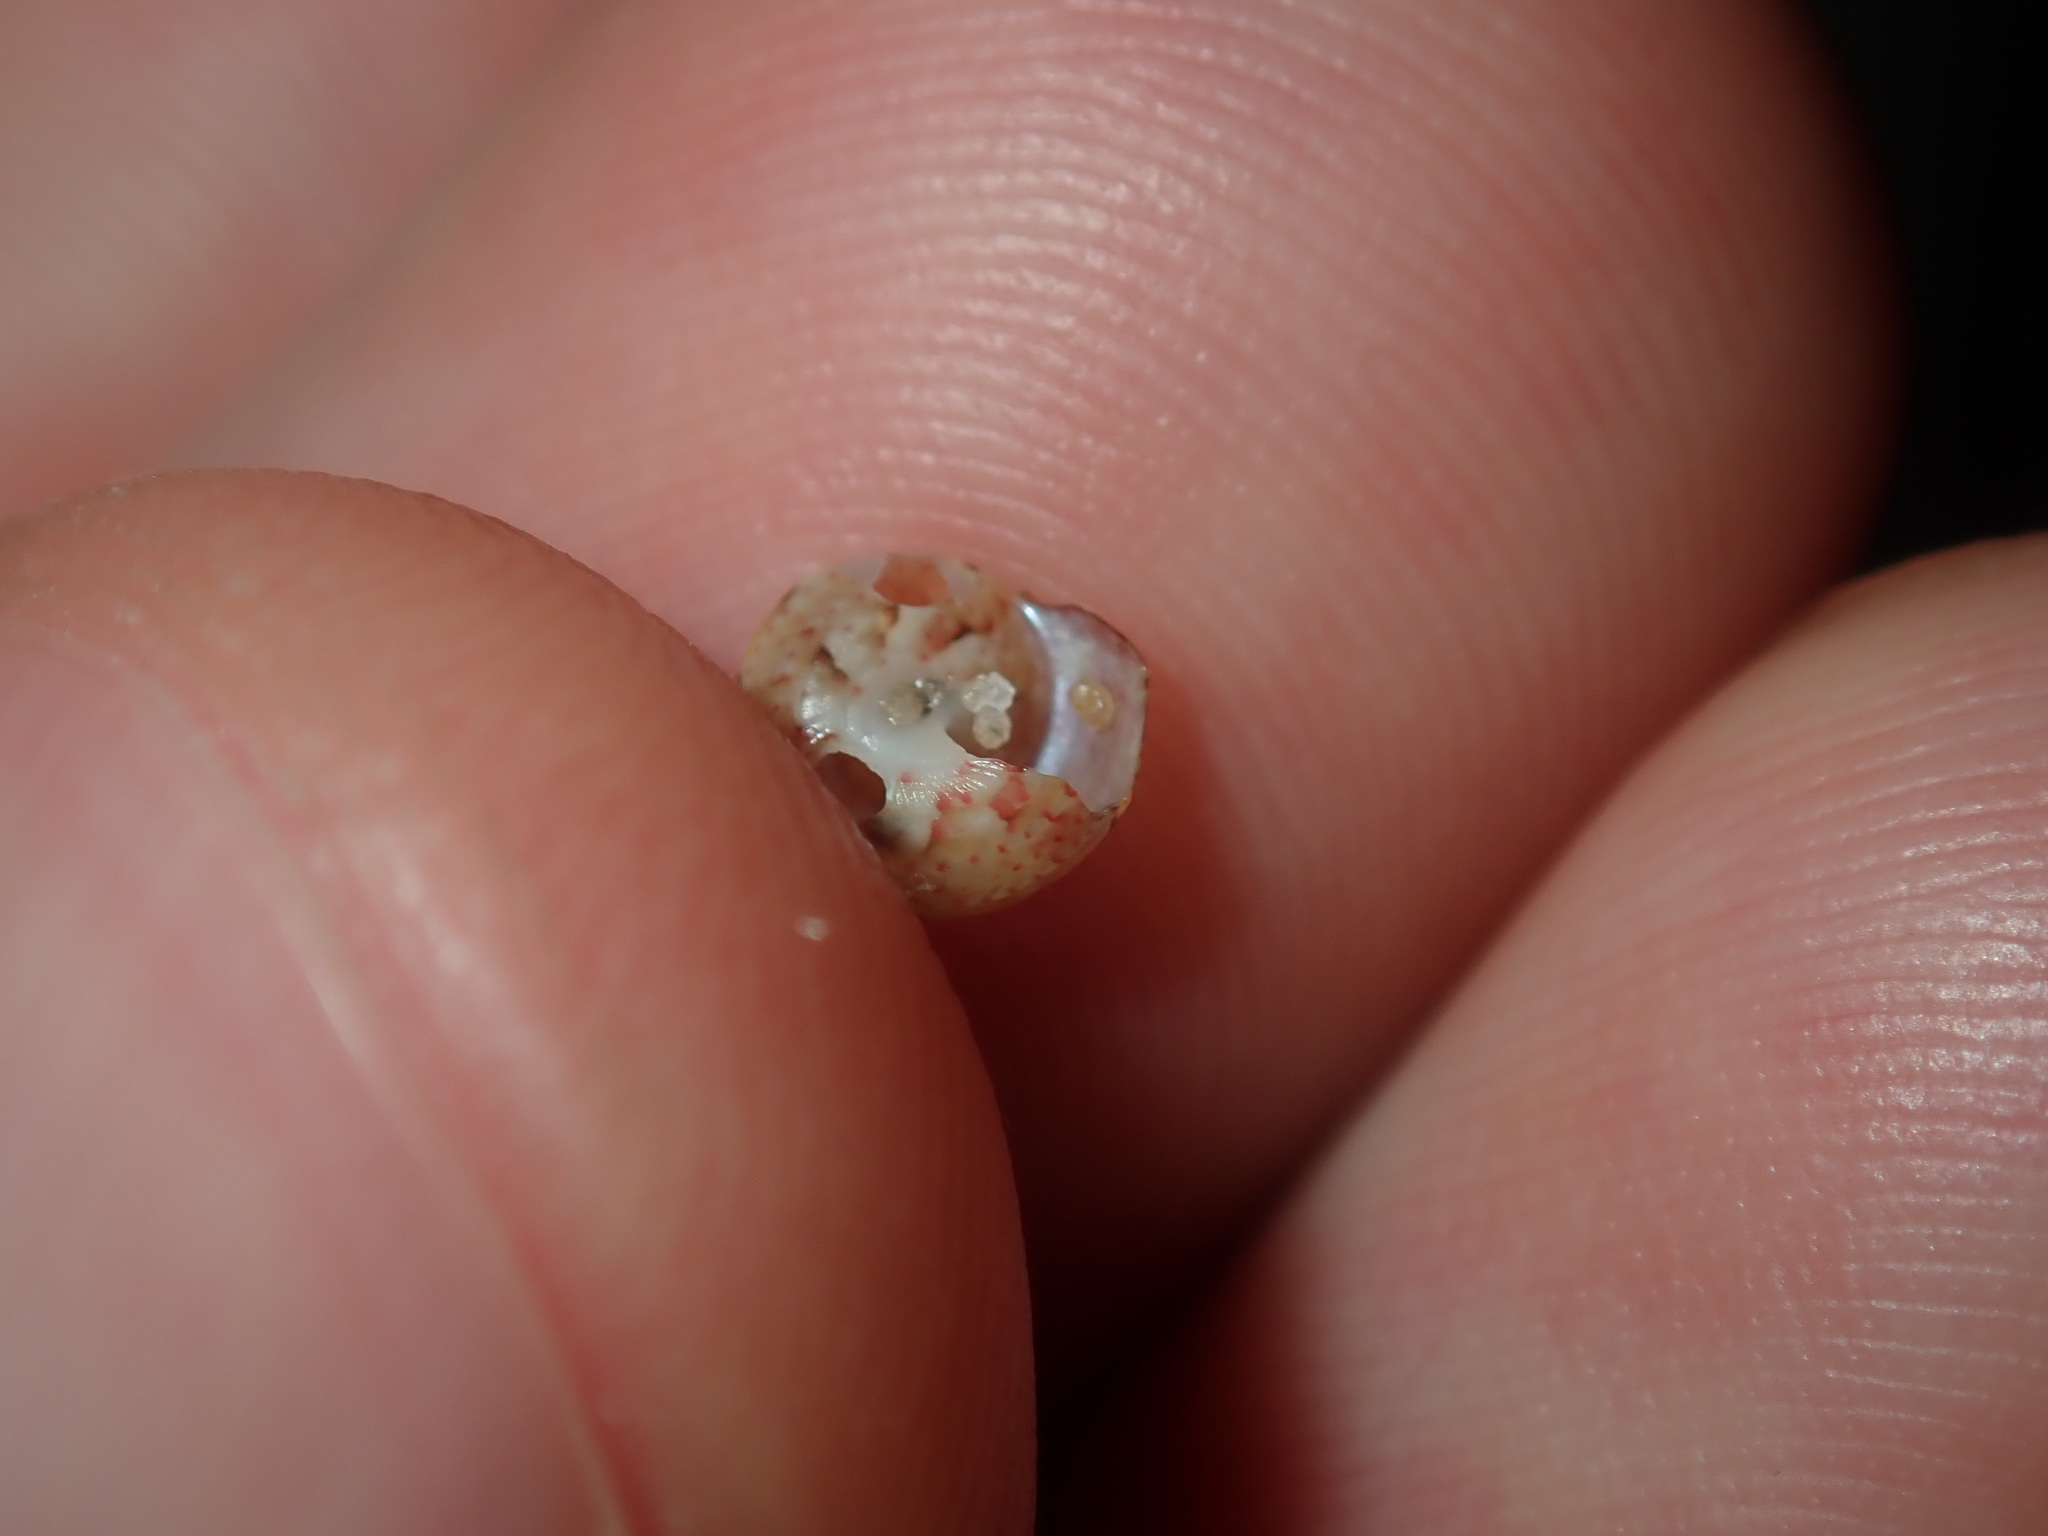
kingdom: Animalia
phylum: Mollusca
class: Gastropoda
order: Trochida
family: Trochidae
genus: Cantharidella
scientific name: Cantharidella picturata
